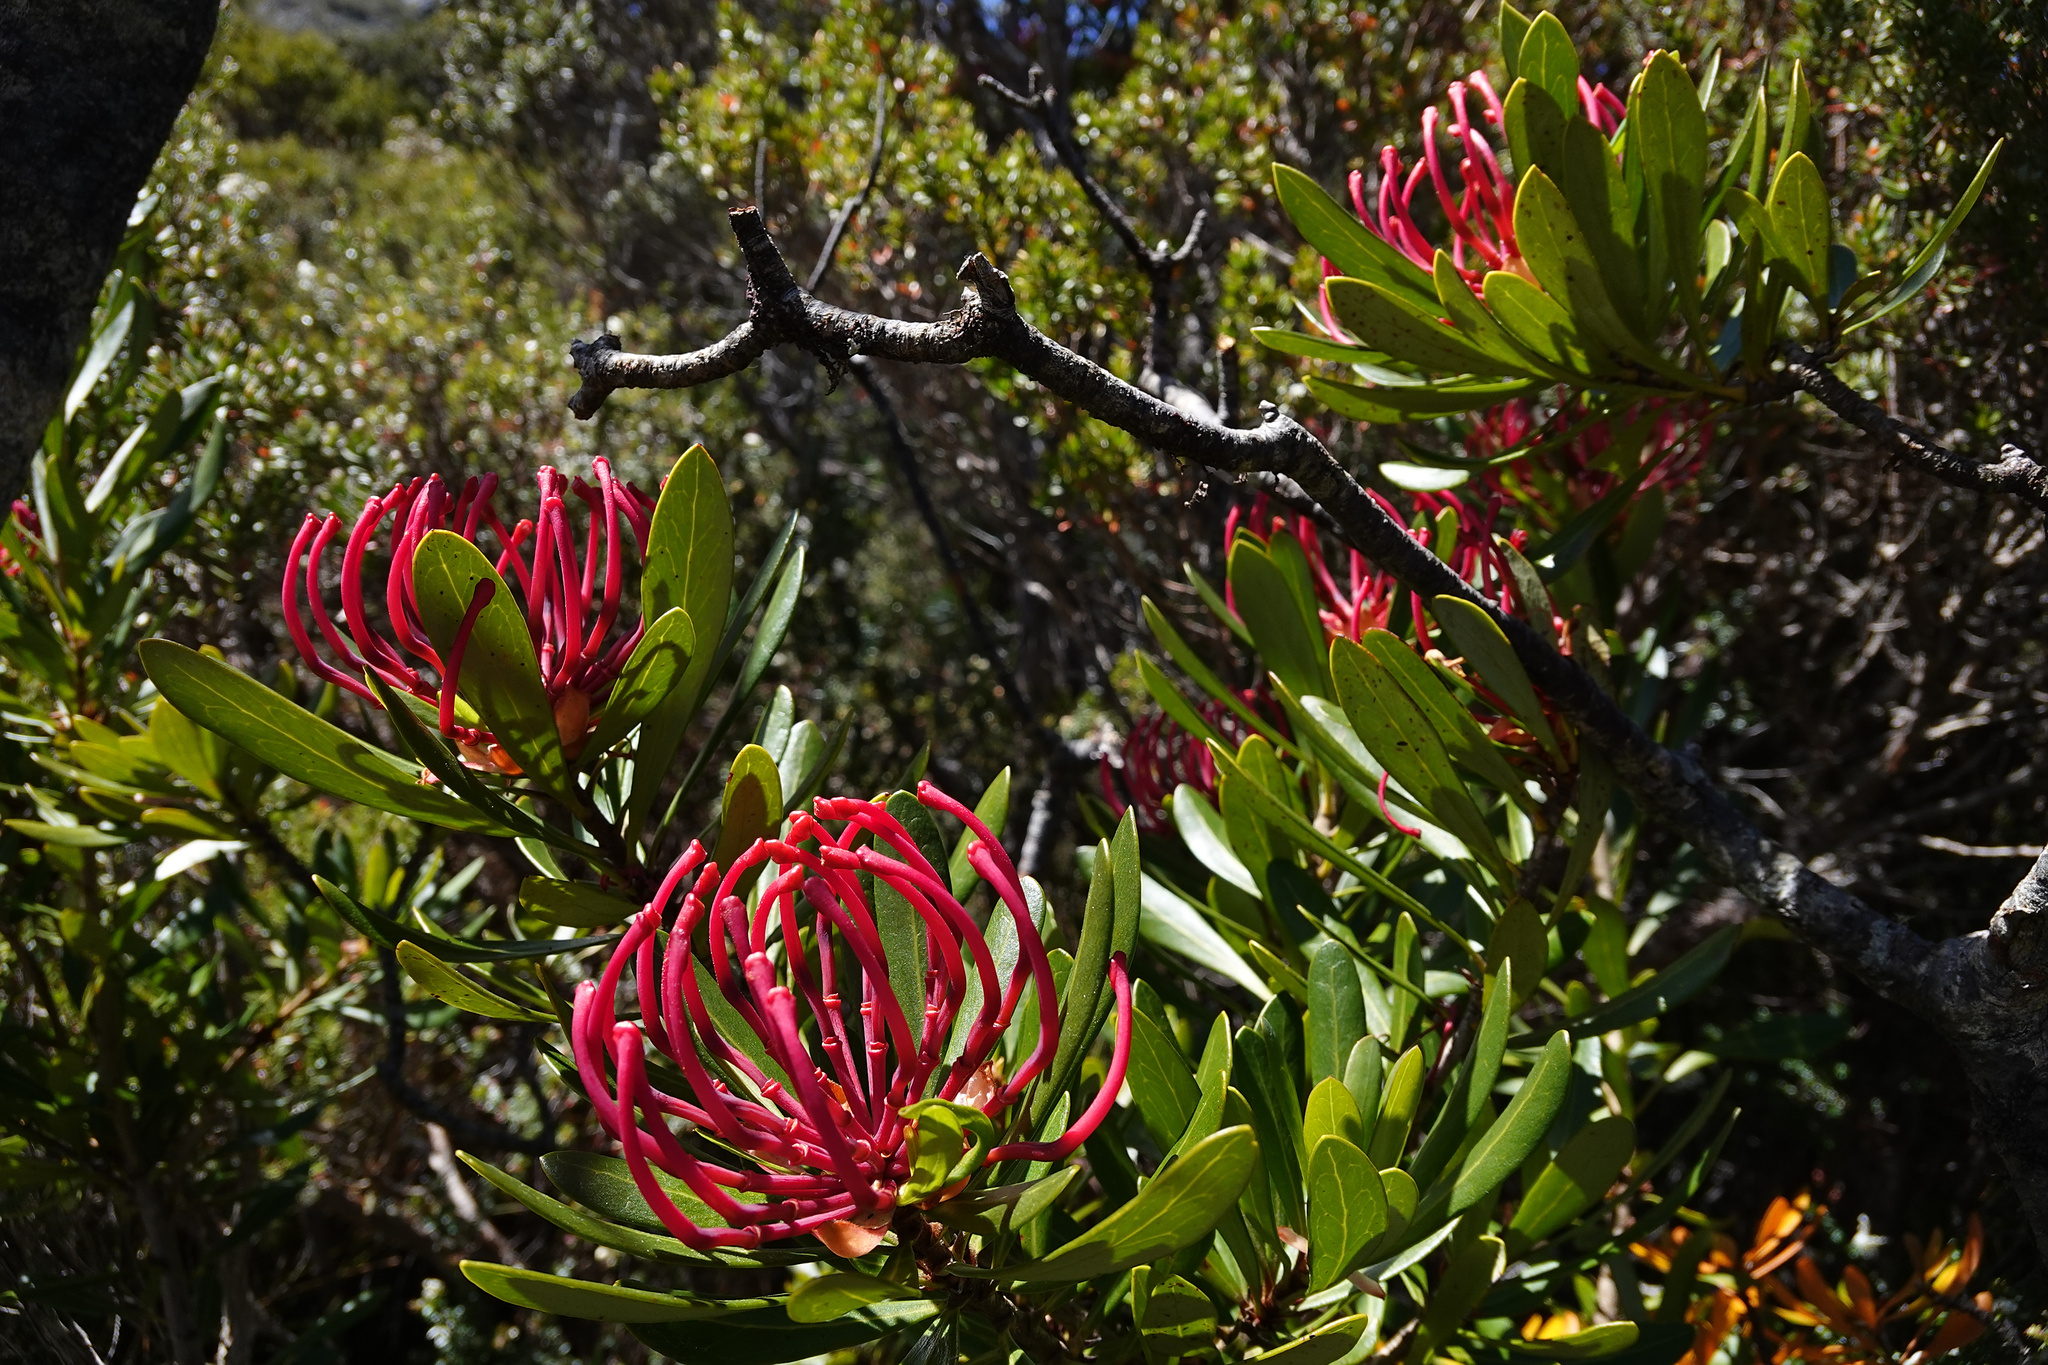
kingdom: Plantae
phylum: Tracheophyta
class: Magnoliopsida
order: Proteales
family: Proteaceae
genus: Telopea
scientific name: Telopea truncata
